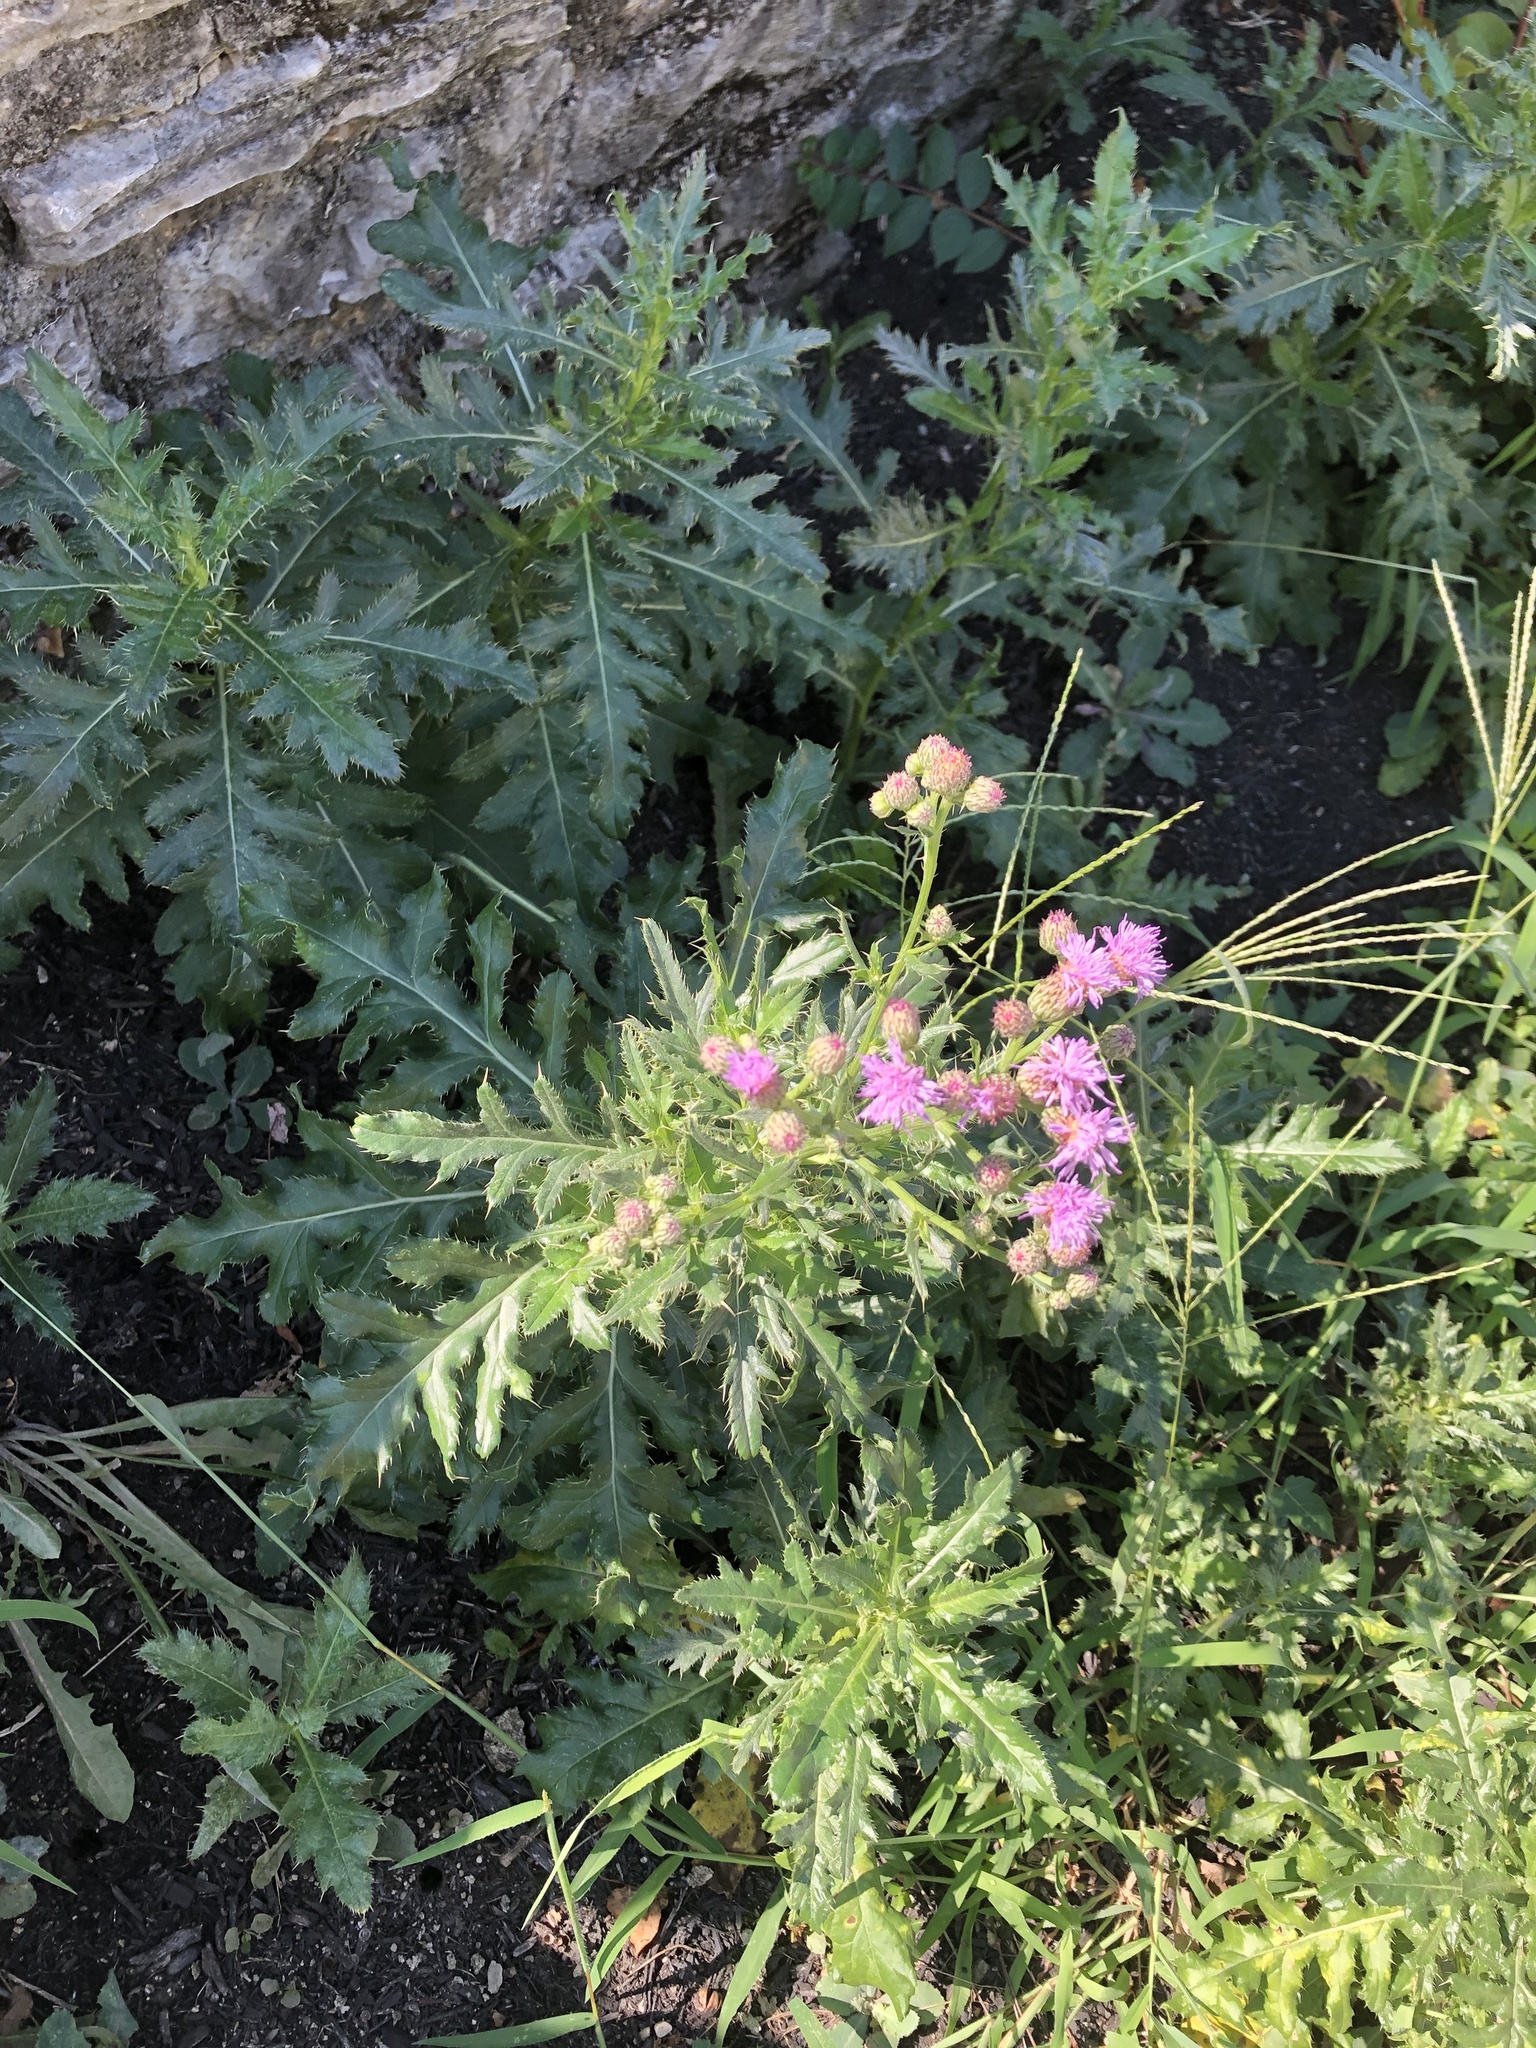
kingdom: Plantae
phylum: Tracheophyta
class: Magnoliopsida
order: Asterales
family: Asteraceae
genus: Cirsium
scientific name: Cirsium arvense
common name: Creeping thistle
